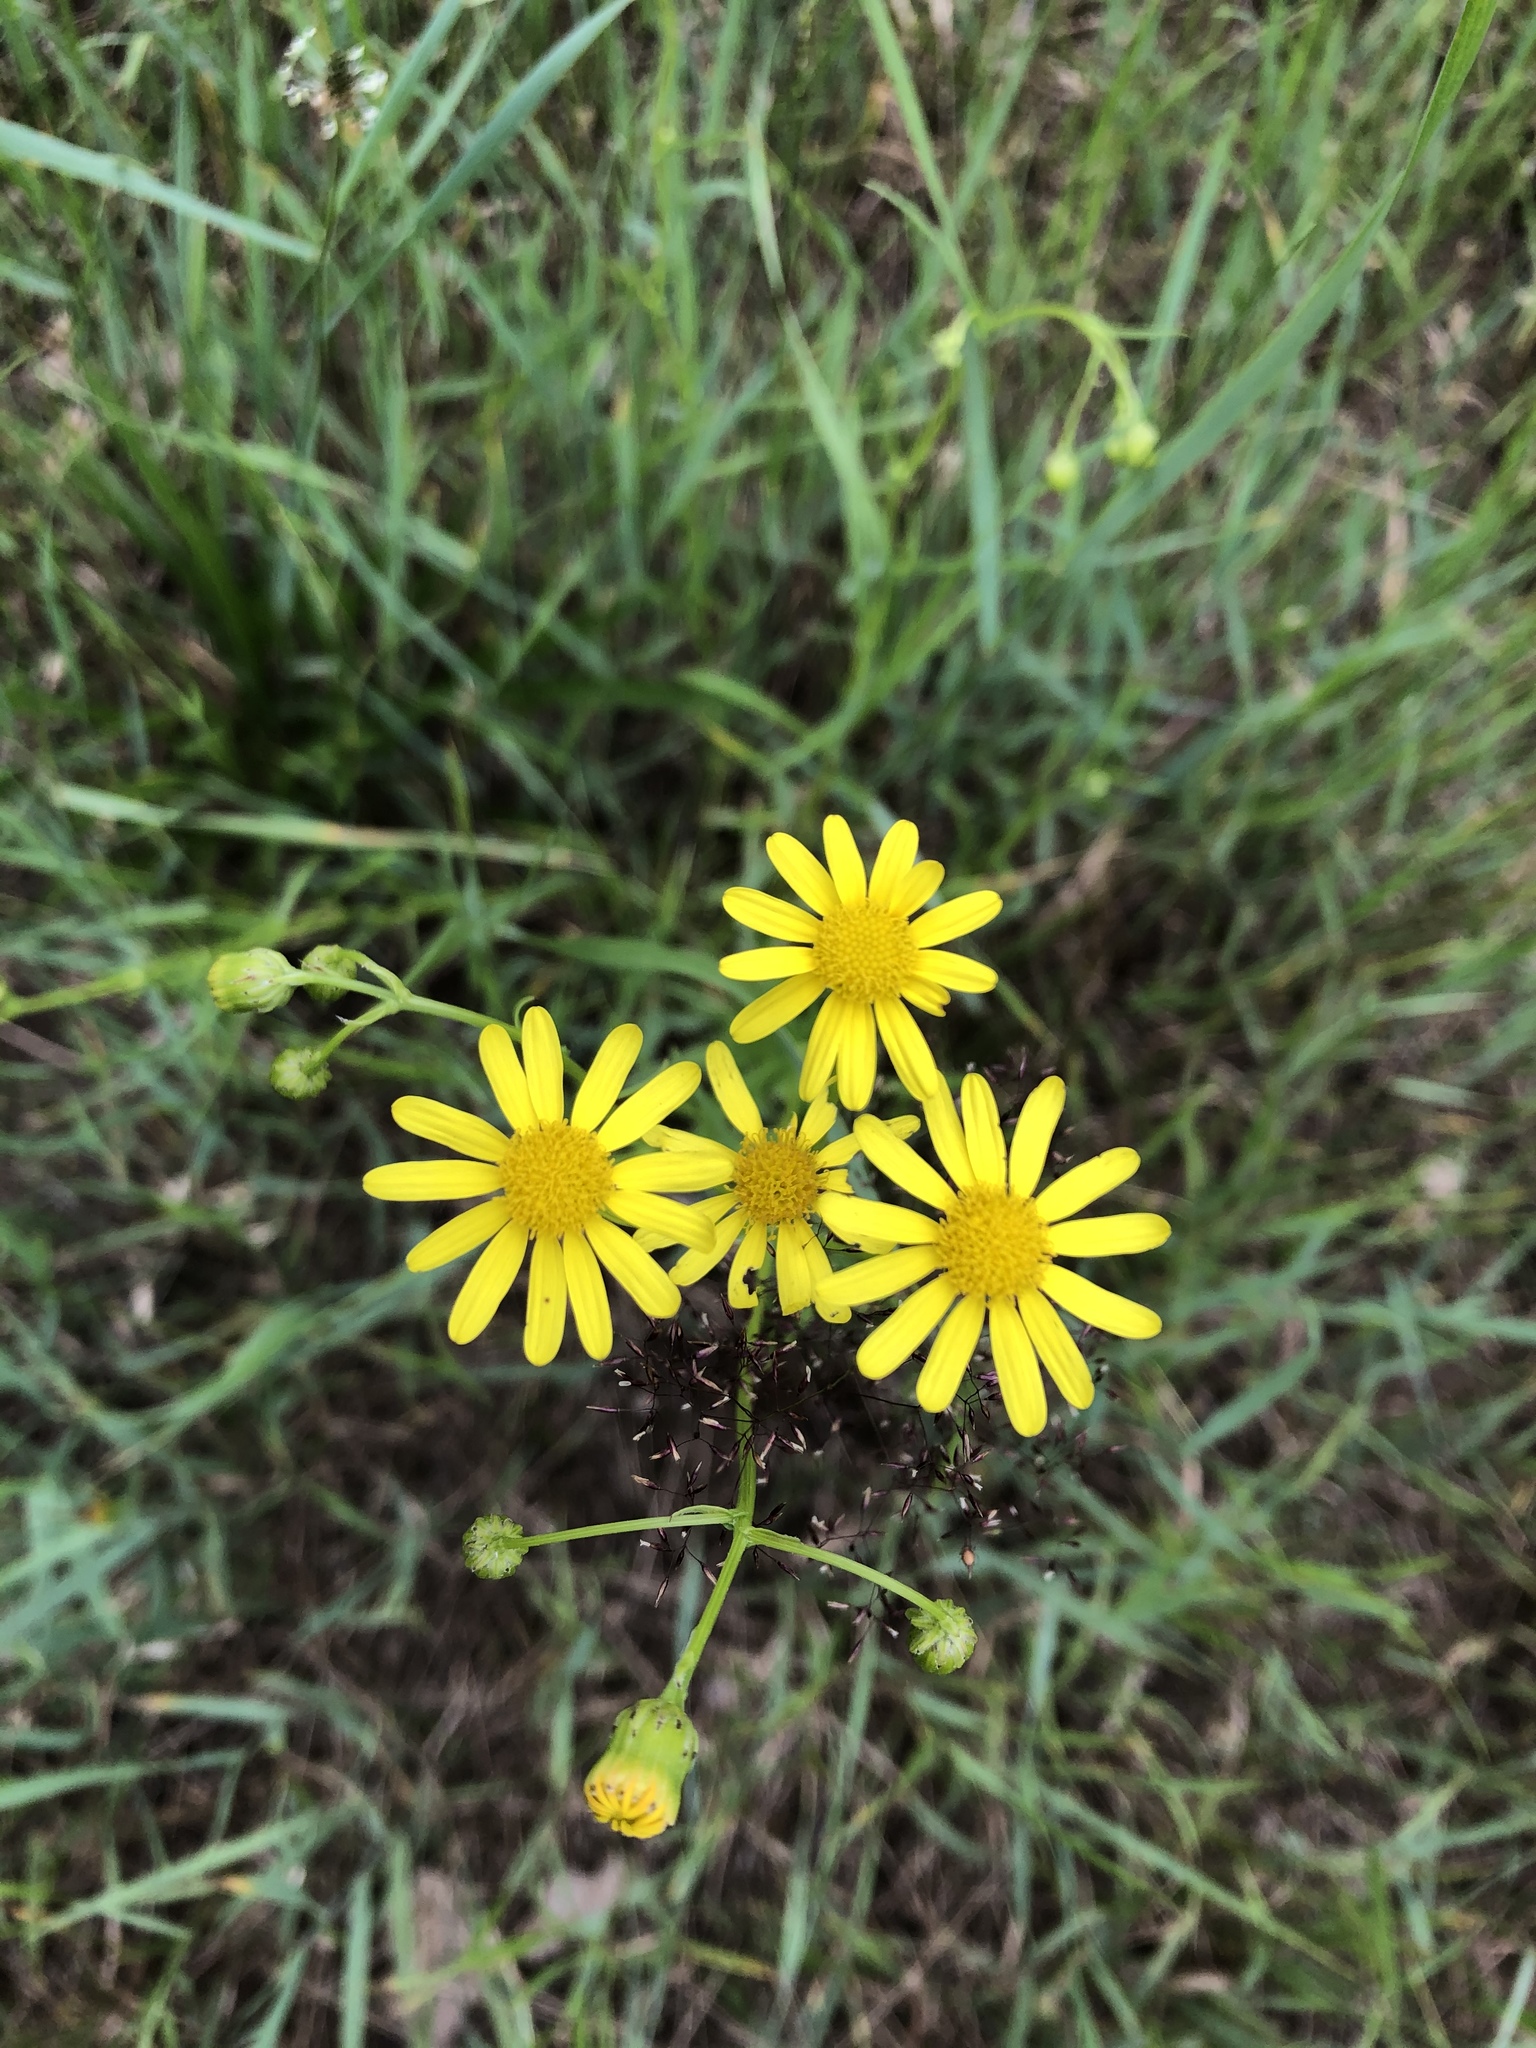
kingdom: Plantae
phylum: Tracheophyta
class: Magnoliopsida
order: Asterales
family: Asteraceae
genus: Senecio
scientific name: Senecio inaequidens
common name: Narrow-leaved ragwort
